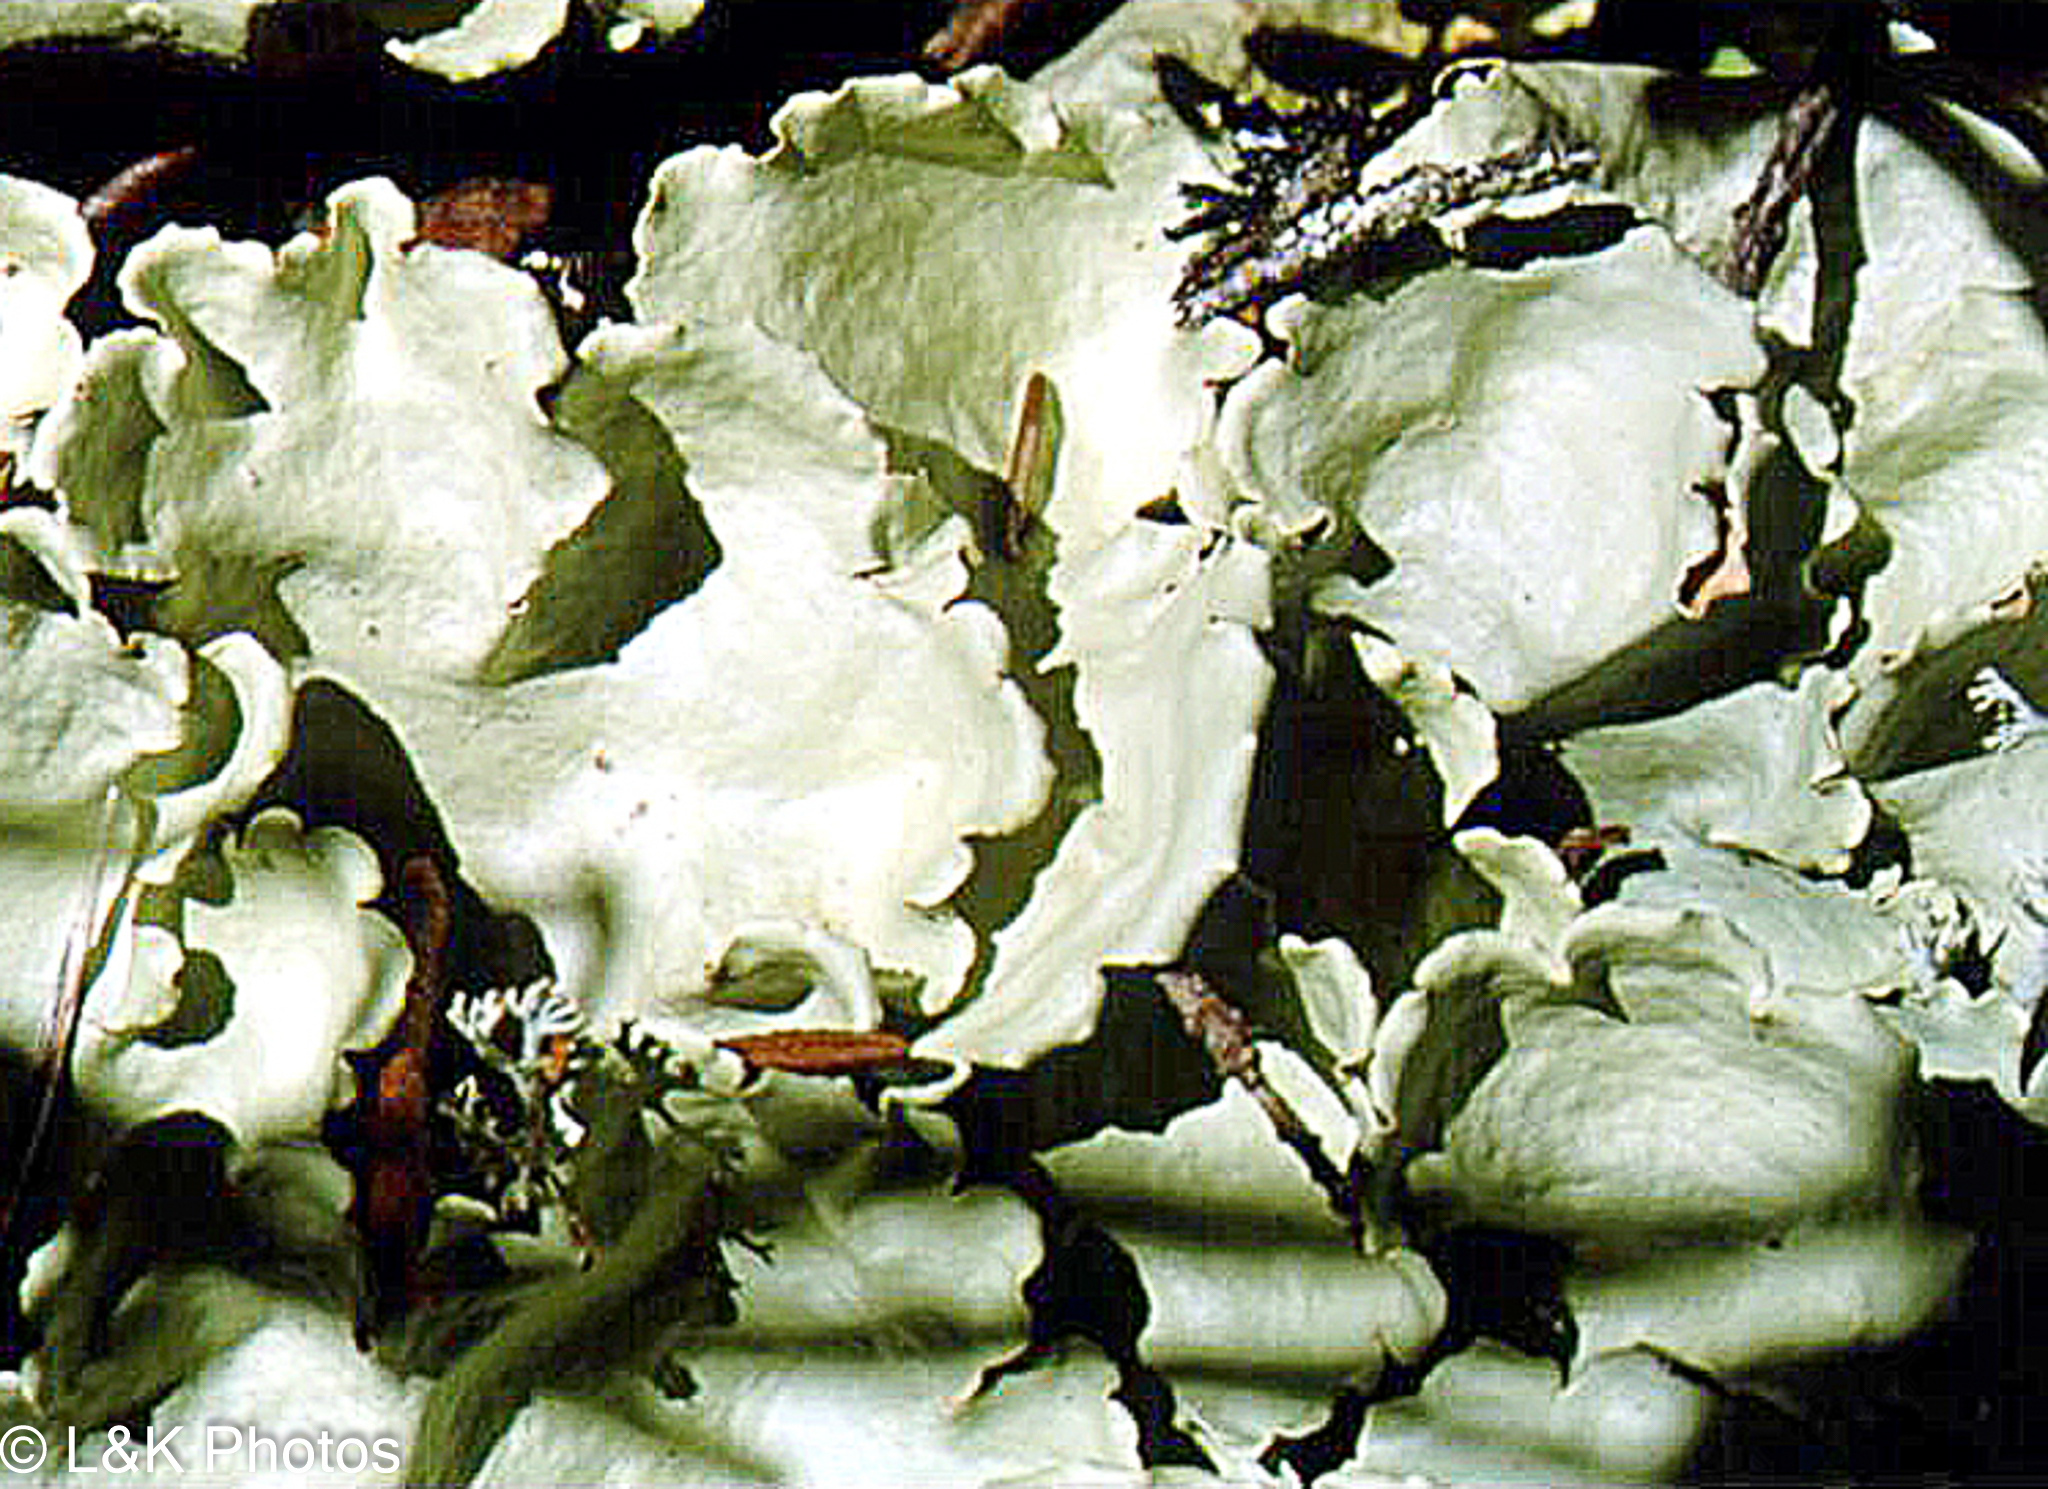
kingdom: Fungi
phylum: Ascomycota
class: Lecanoromycetes
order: Peltigerales
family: Nephromataceae
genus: Nephroma
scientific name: Nephroma arcticum
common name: Arctic kidney-lichen
